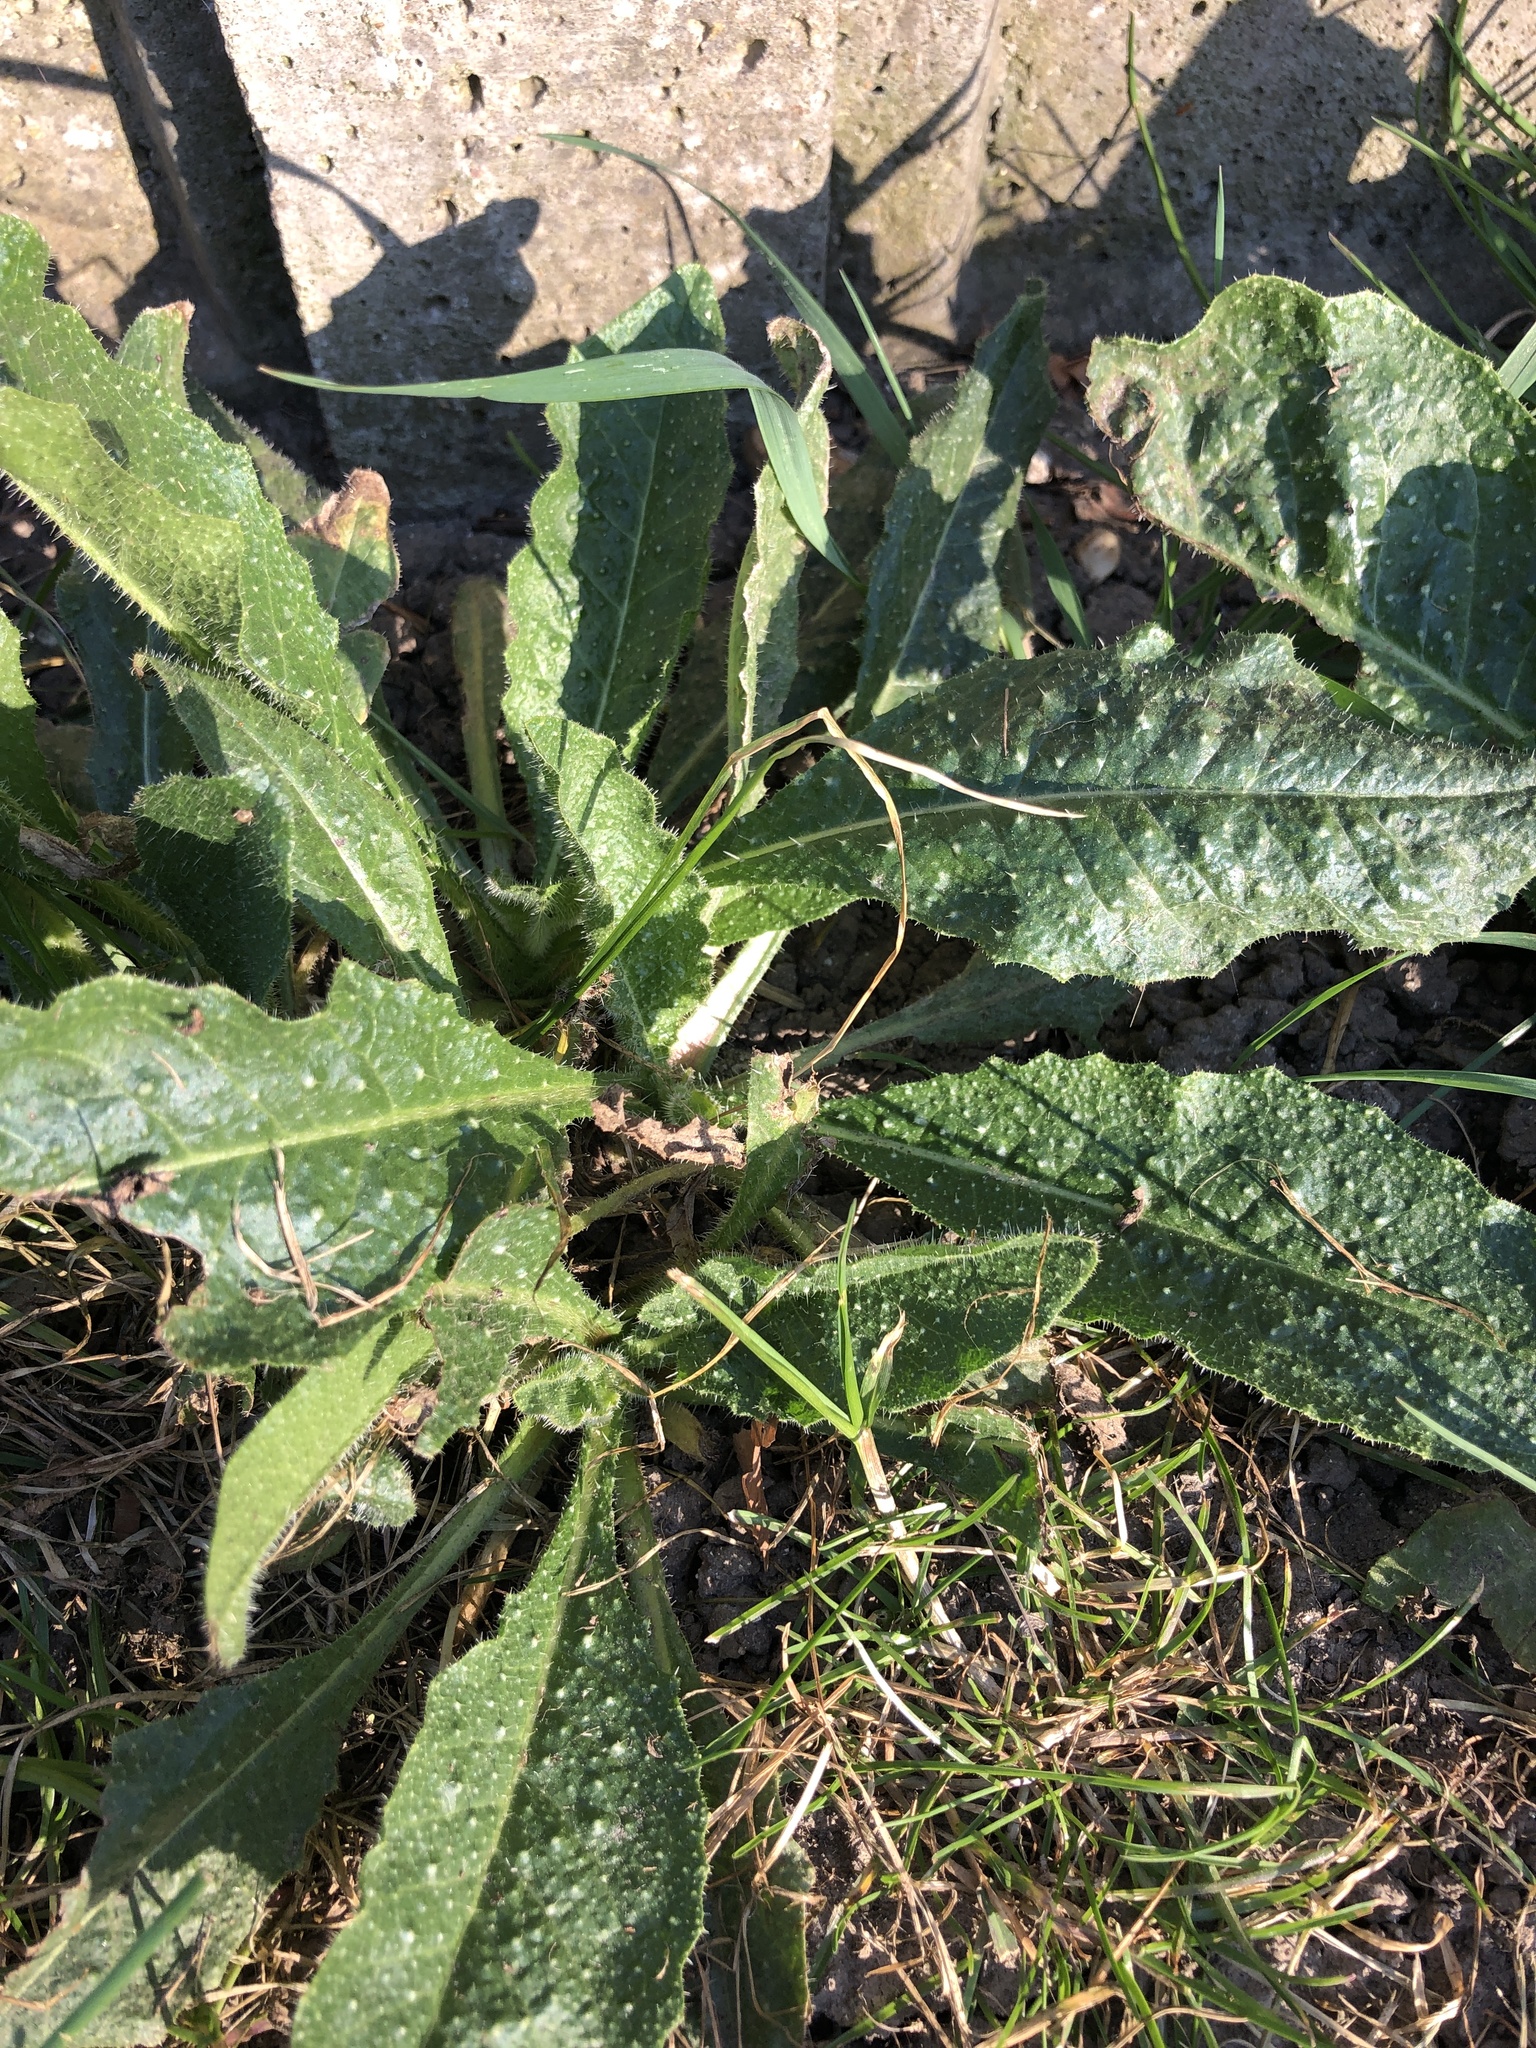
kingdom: Plantae
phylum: Tracheophyta
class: Magnoliopsida
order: Asterales
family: Asteraceae
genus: Helminthotheca
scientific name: Helminthotheca echioides
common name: Ox-tongue
